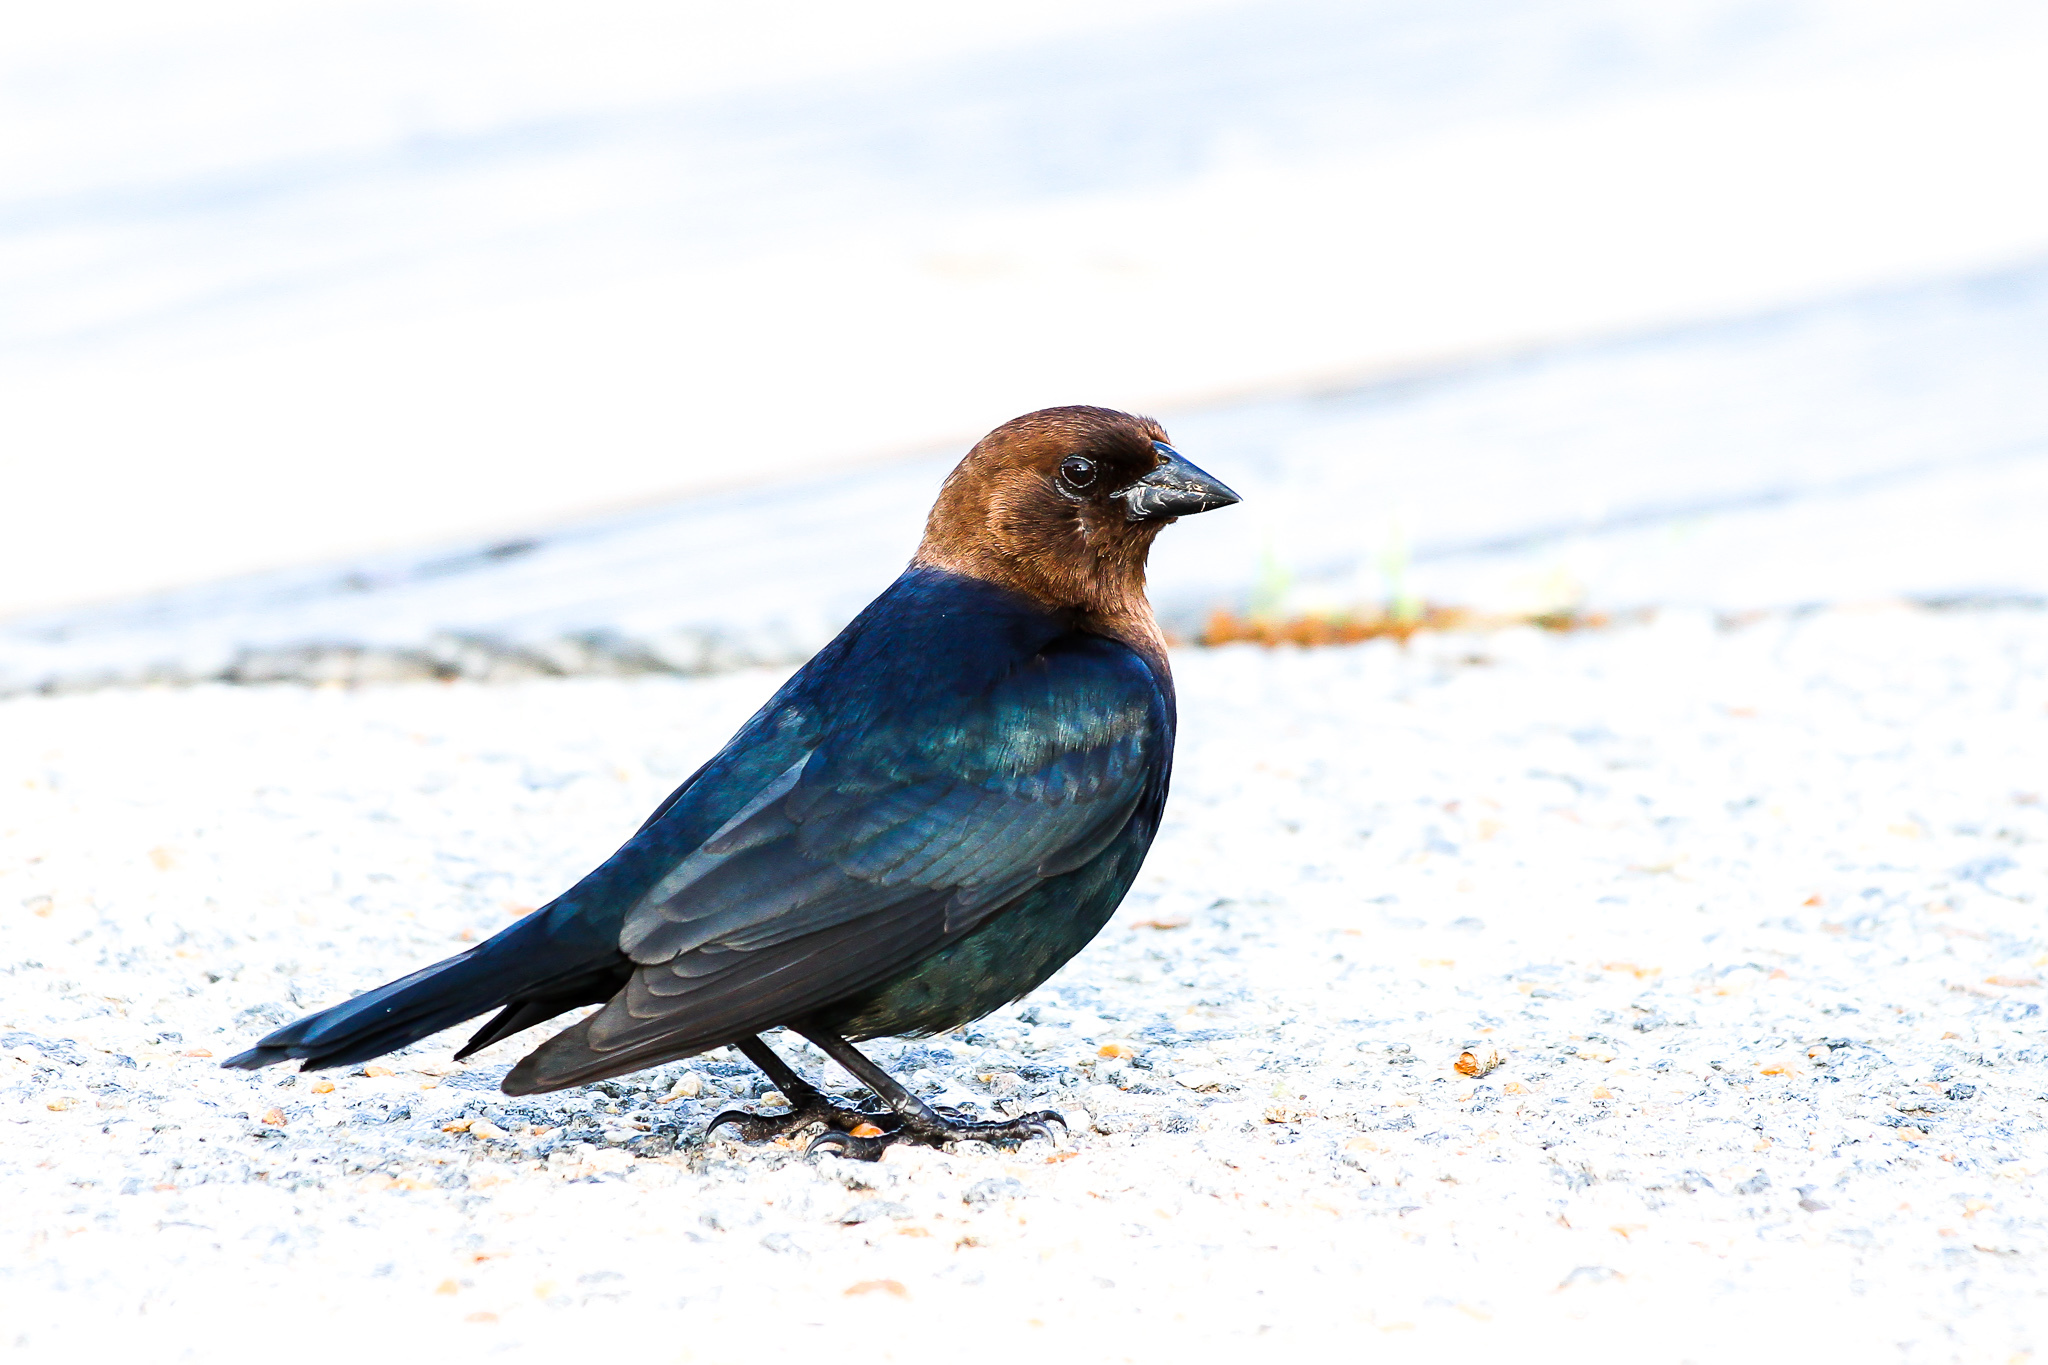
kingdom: Animalia
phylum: Chordata
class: Aves
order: Passeriformes
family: Icteridae
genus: Molothrus
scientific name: Molothrus ater
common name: Brown-headed cowbird
